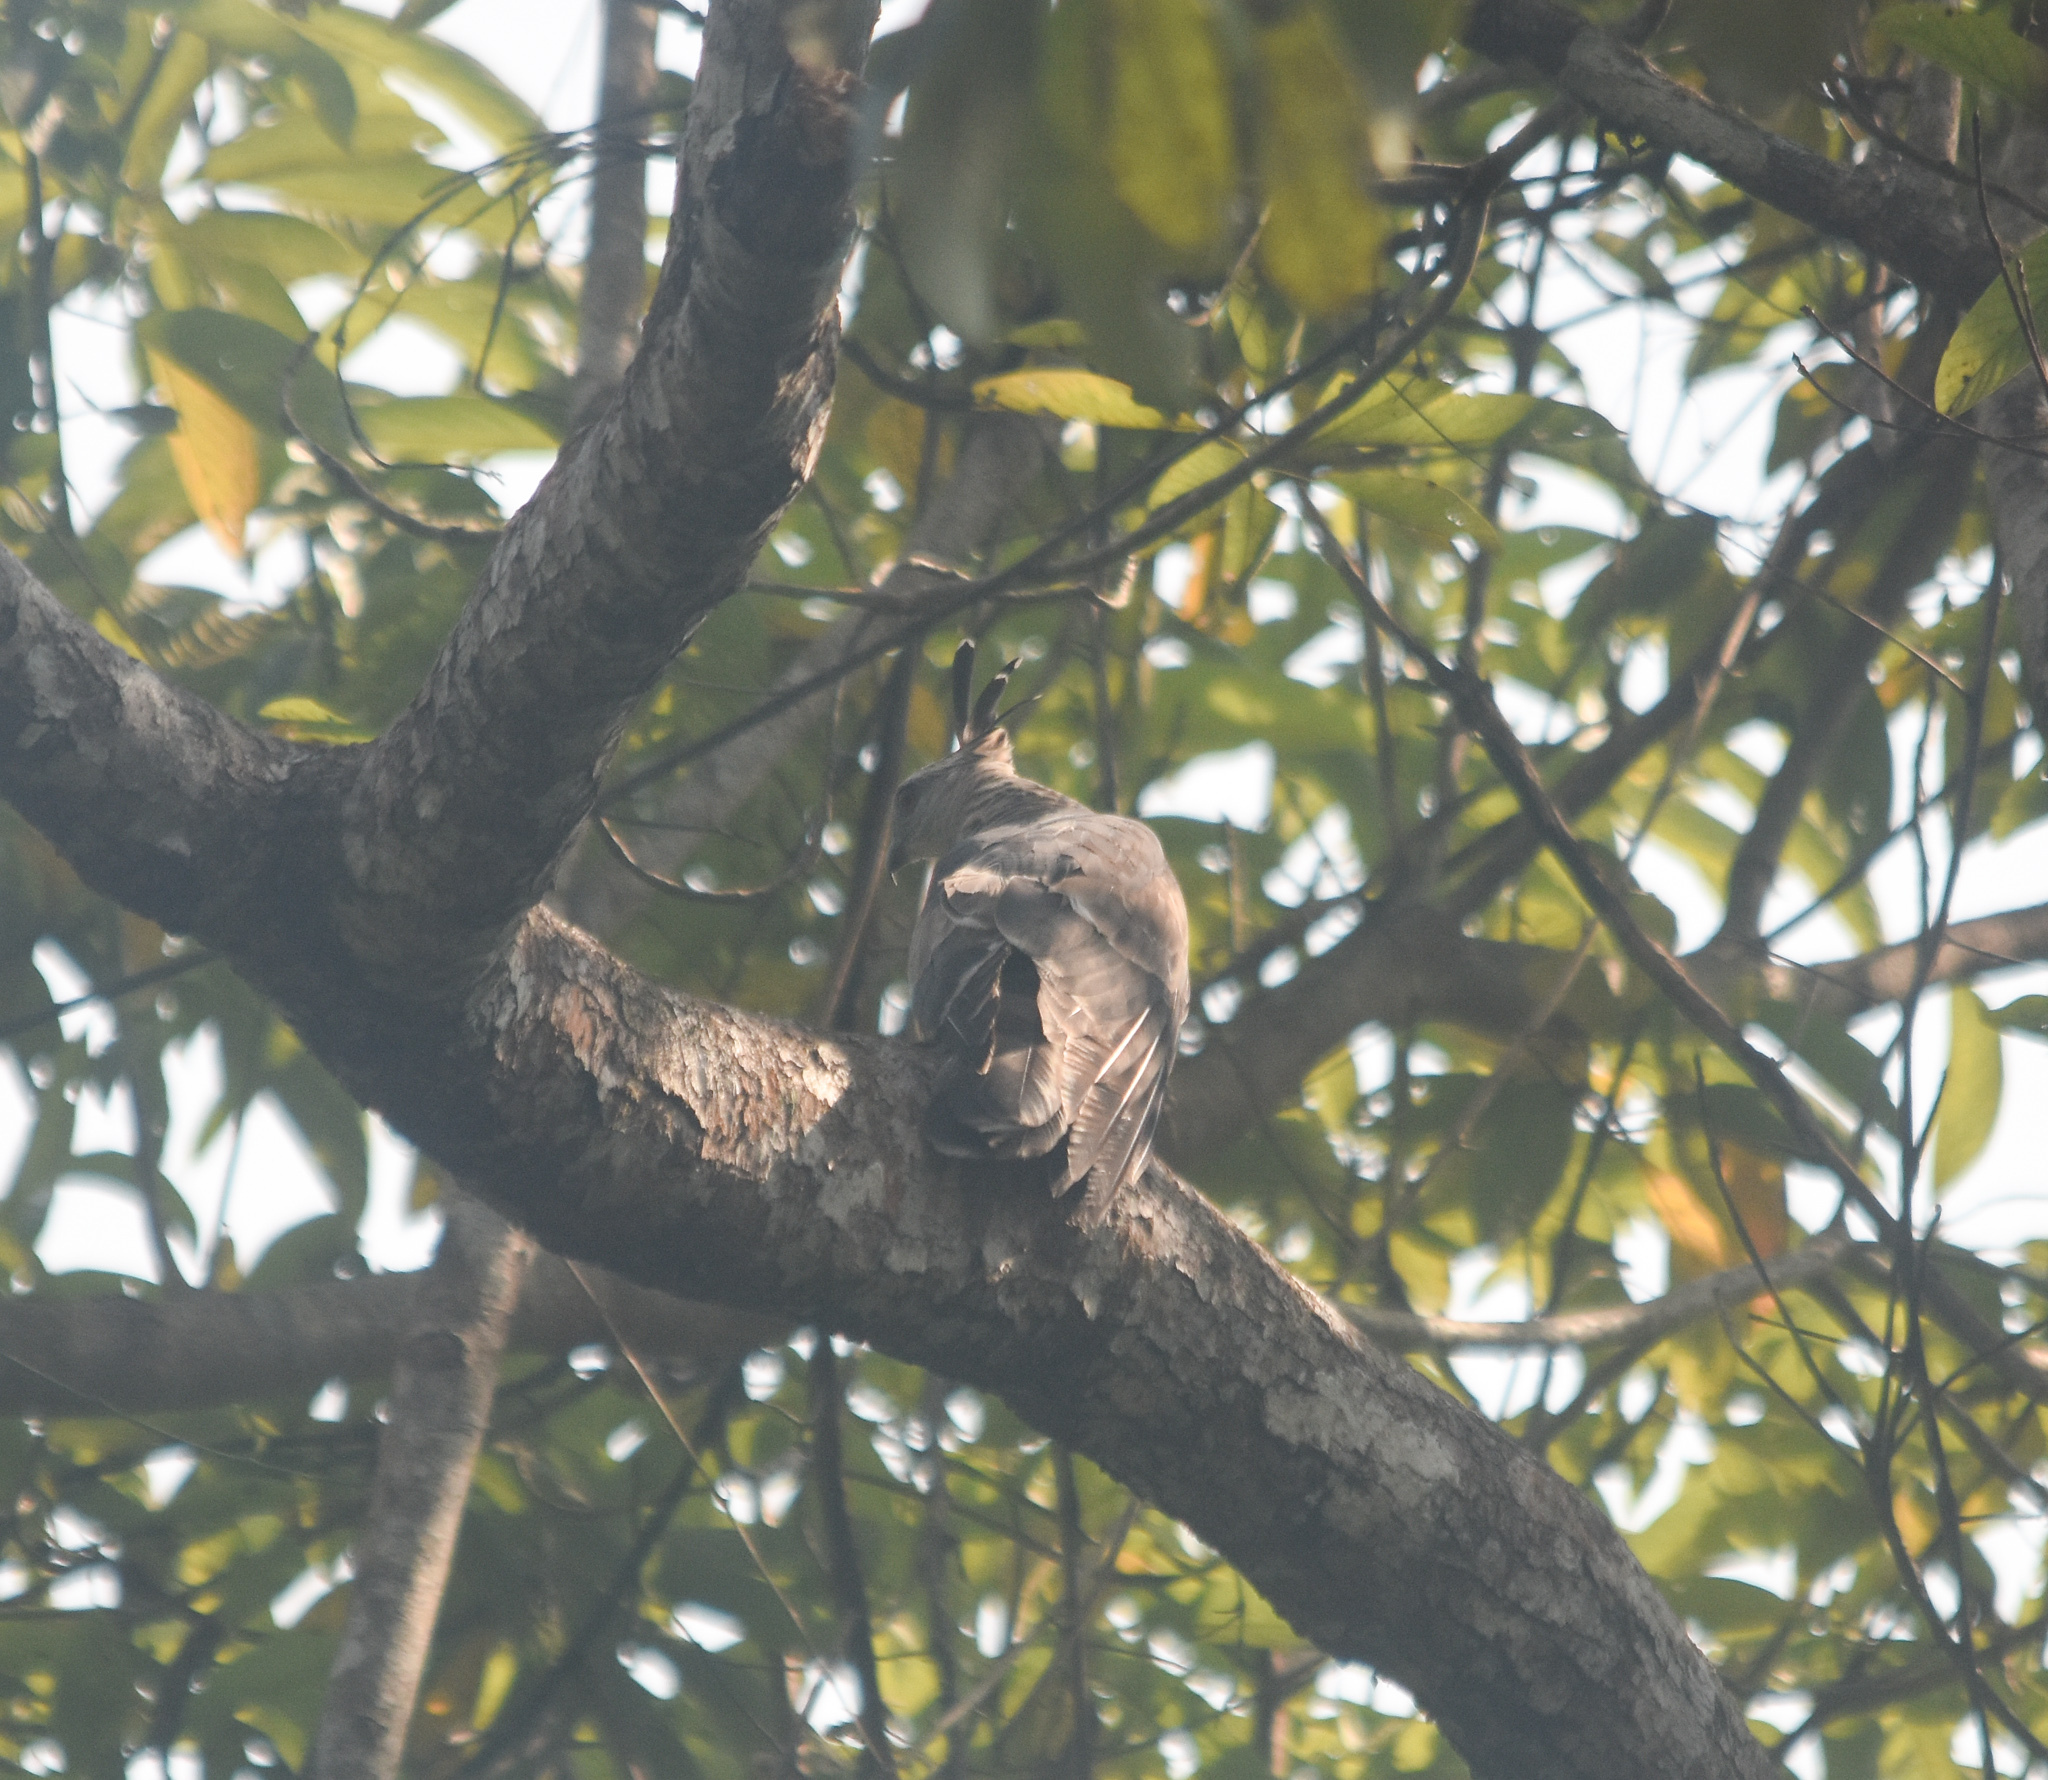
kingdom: Animalia
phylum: Chordata
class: Aves
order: Accipitriformes
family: Accipitridae
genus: Aviceda
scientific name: Aviceda jerdoni
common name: Jerdon's baza
